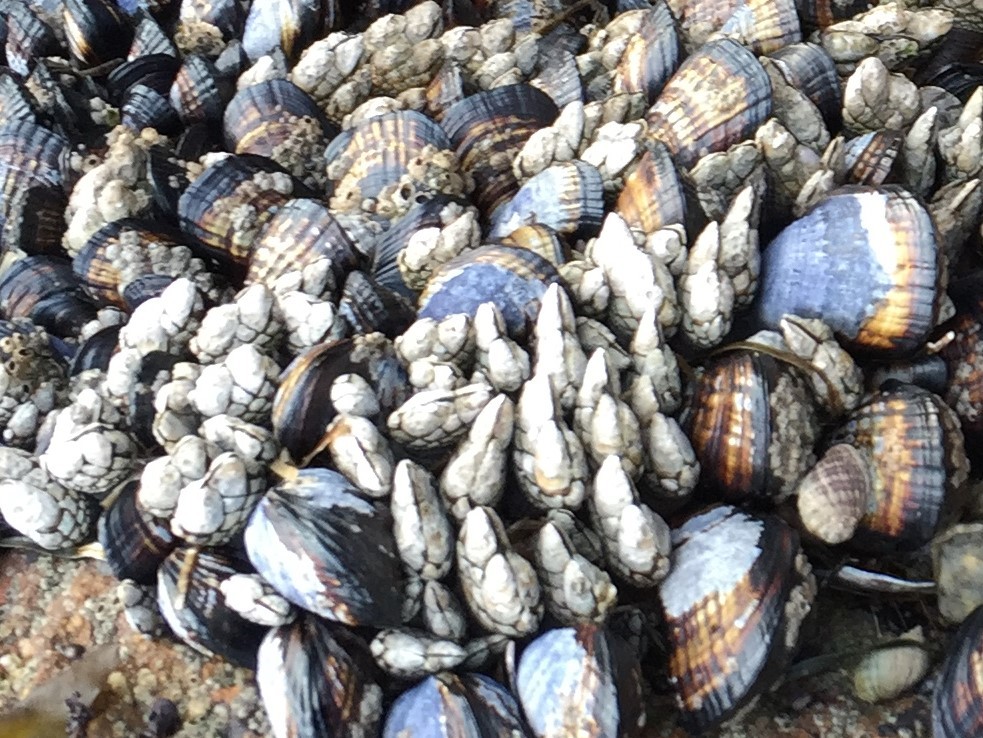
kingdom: Animalia
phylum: Arthropoda
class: Maxillopoda
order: Pedunculata
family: Pollicipedidae
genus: Pollicipes
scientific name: Pollicipes polymerus
